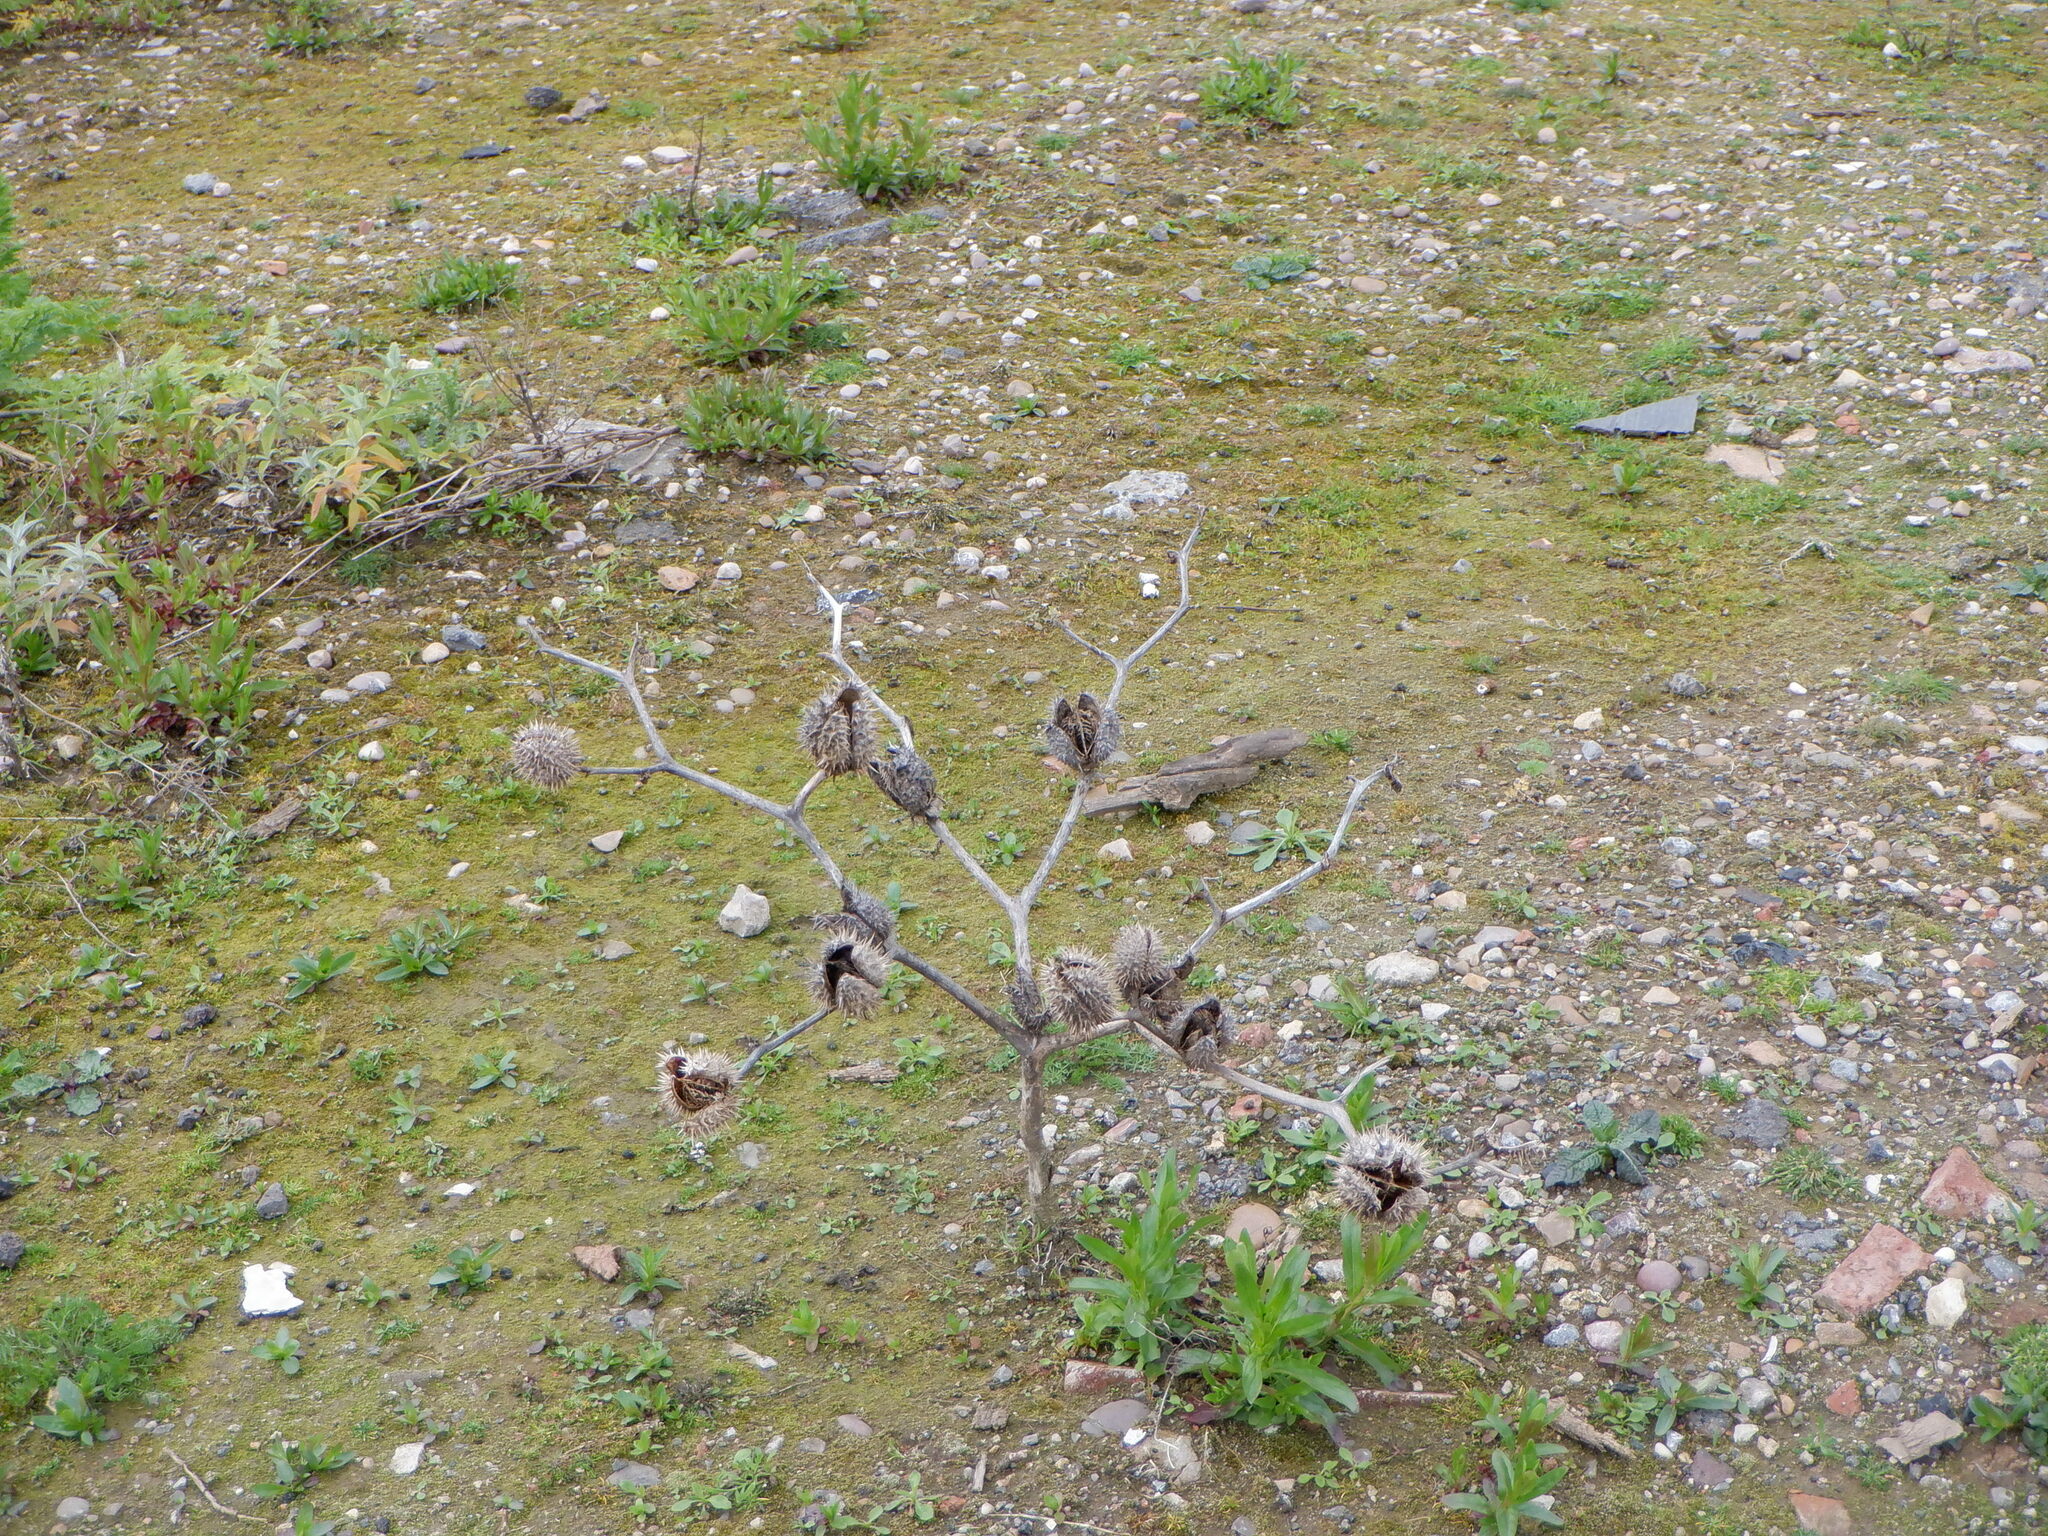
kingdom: Plantae
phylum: Tracheophyta
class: Magnoliopsida
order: Solanales
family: Solanaceae
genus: Datura
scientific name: Datura stramonium
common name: Thorn-apple
